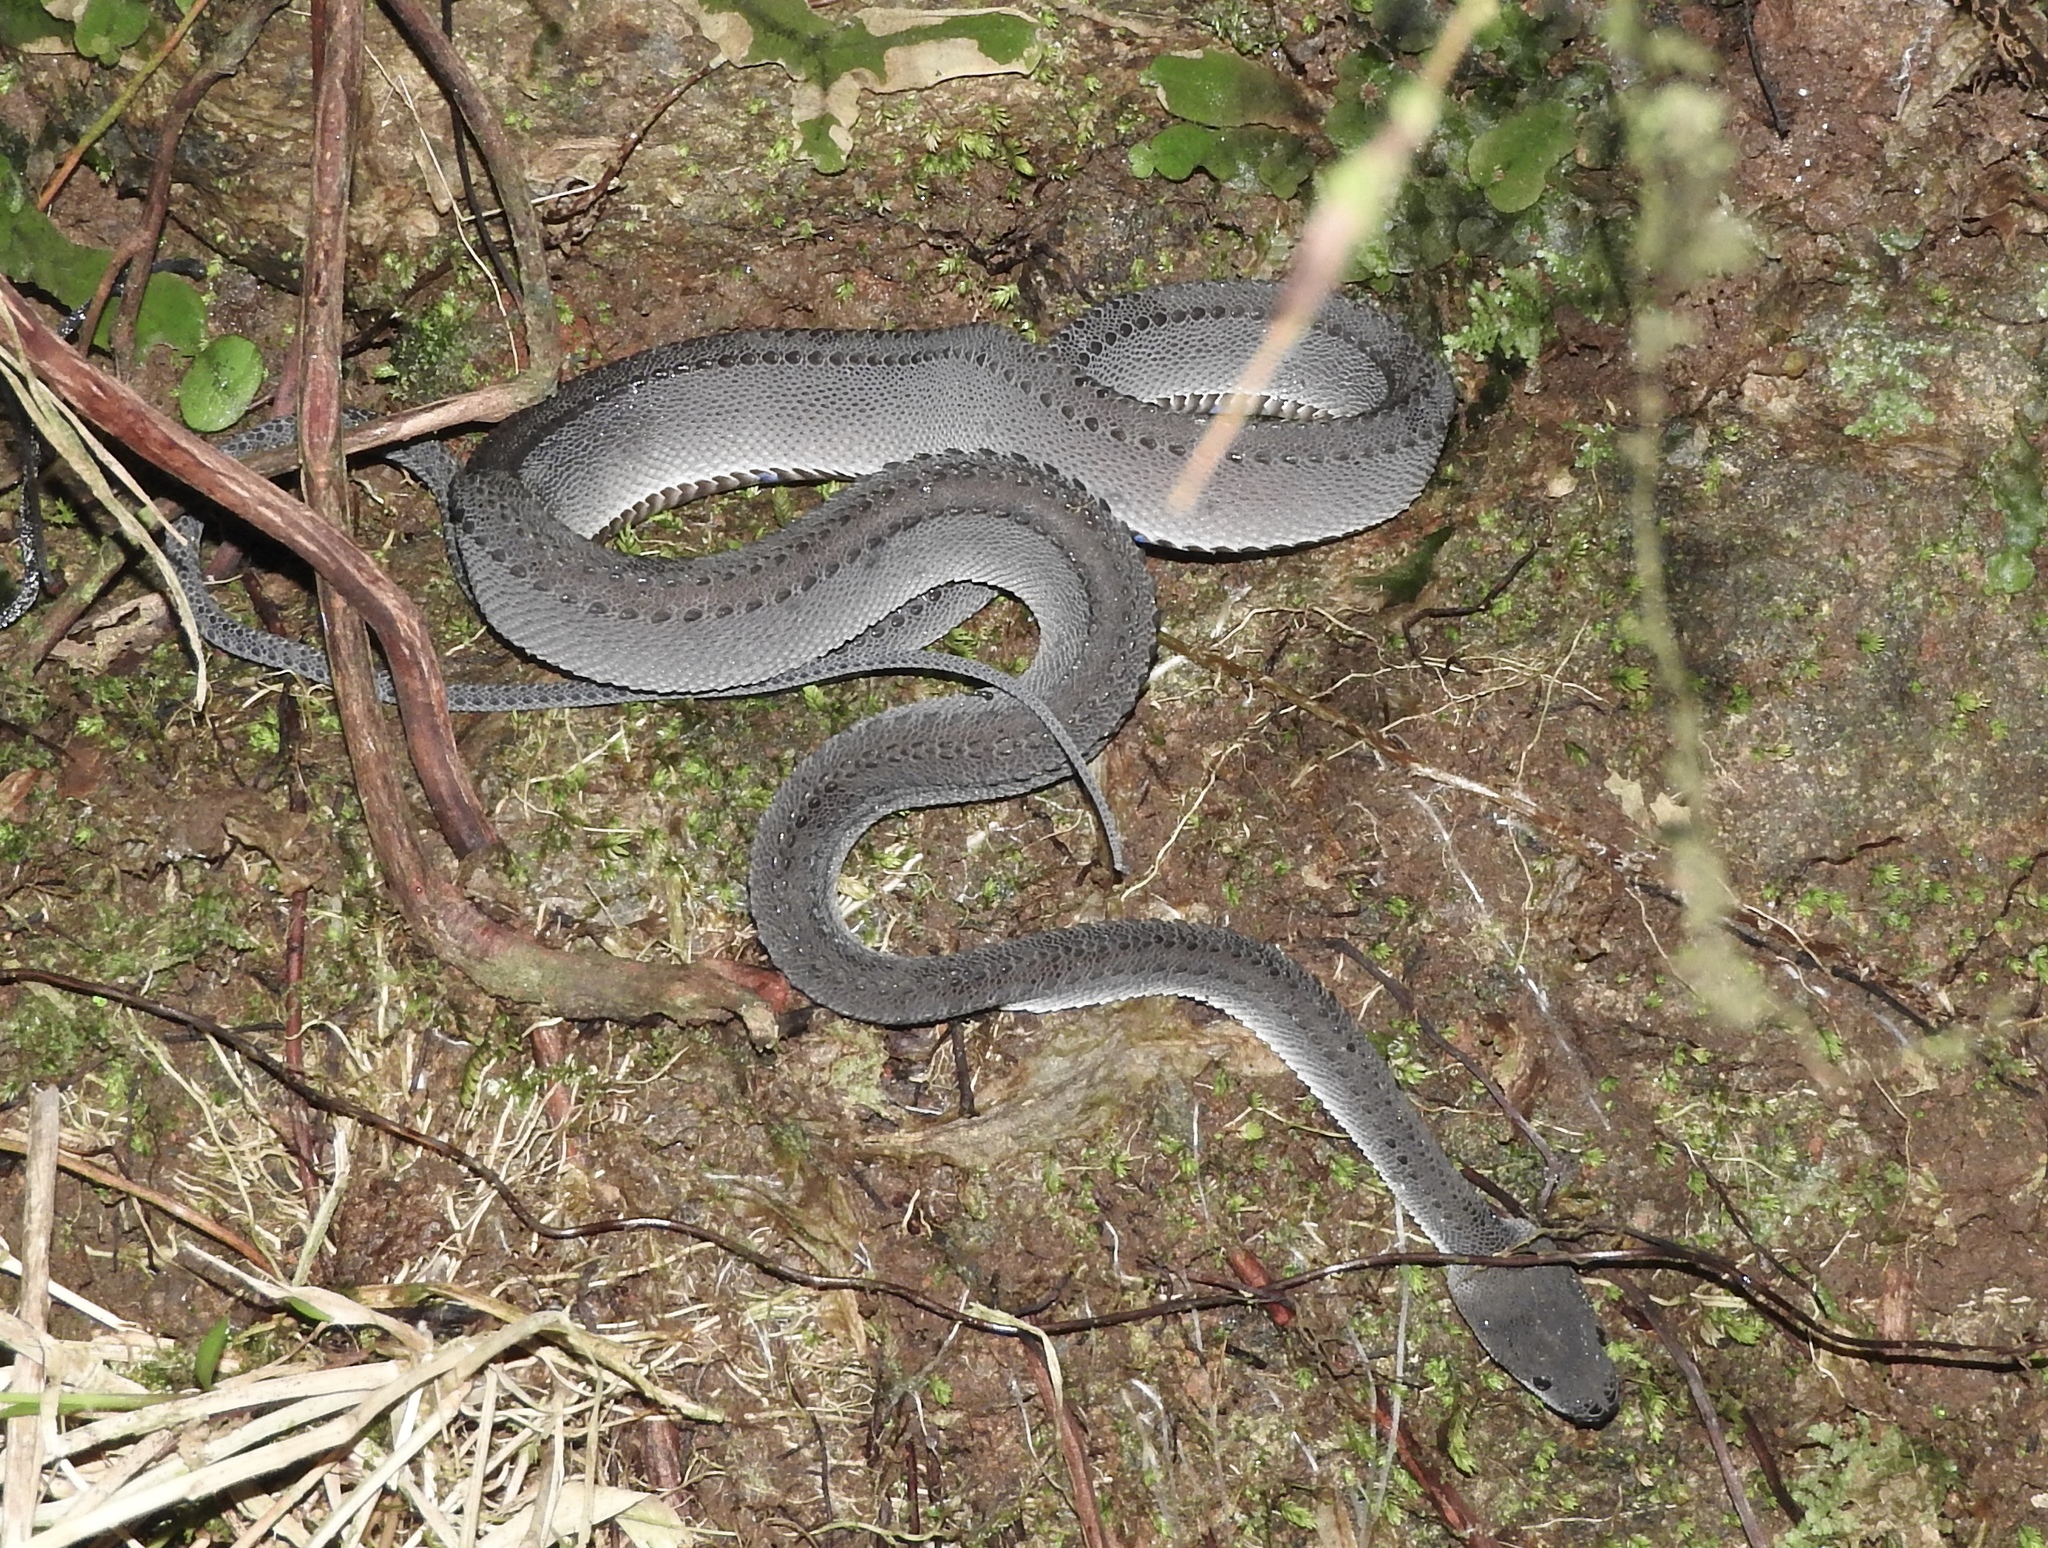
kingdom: Animalia
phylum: Chordata
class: Squamata
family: Xenodermidae
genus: Xenodermus
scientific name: Xenodermus javanicus
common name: Rough-backed litter snake/xenodermine snake
